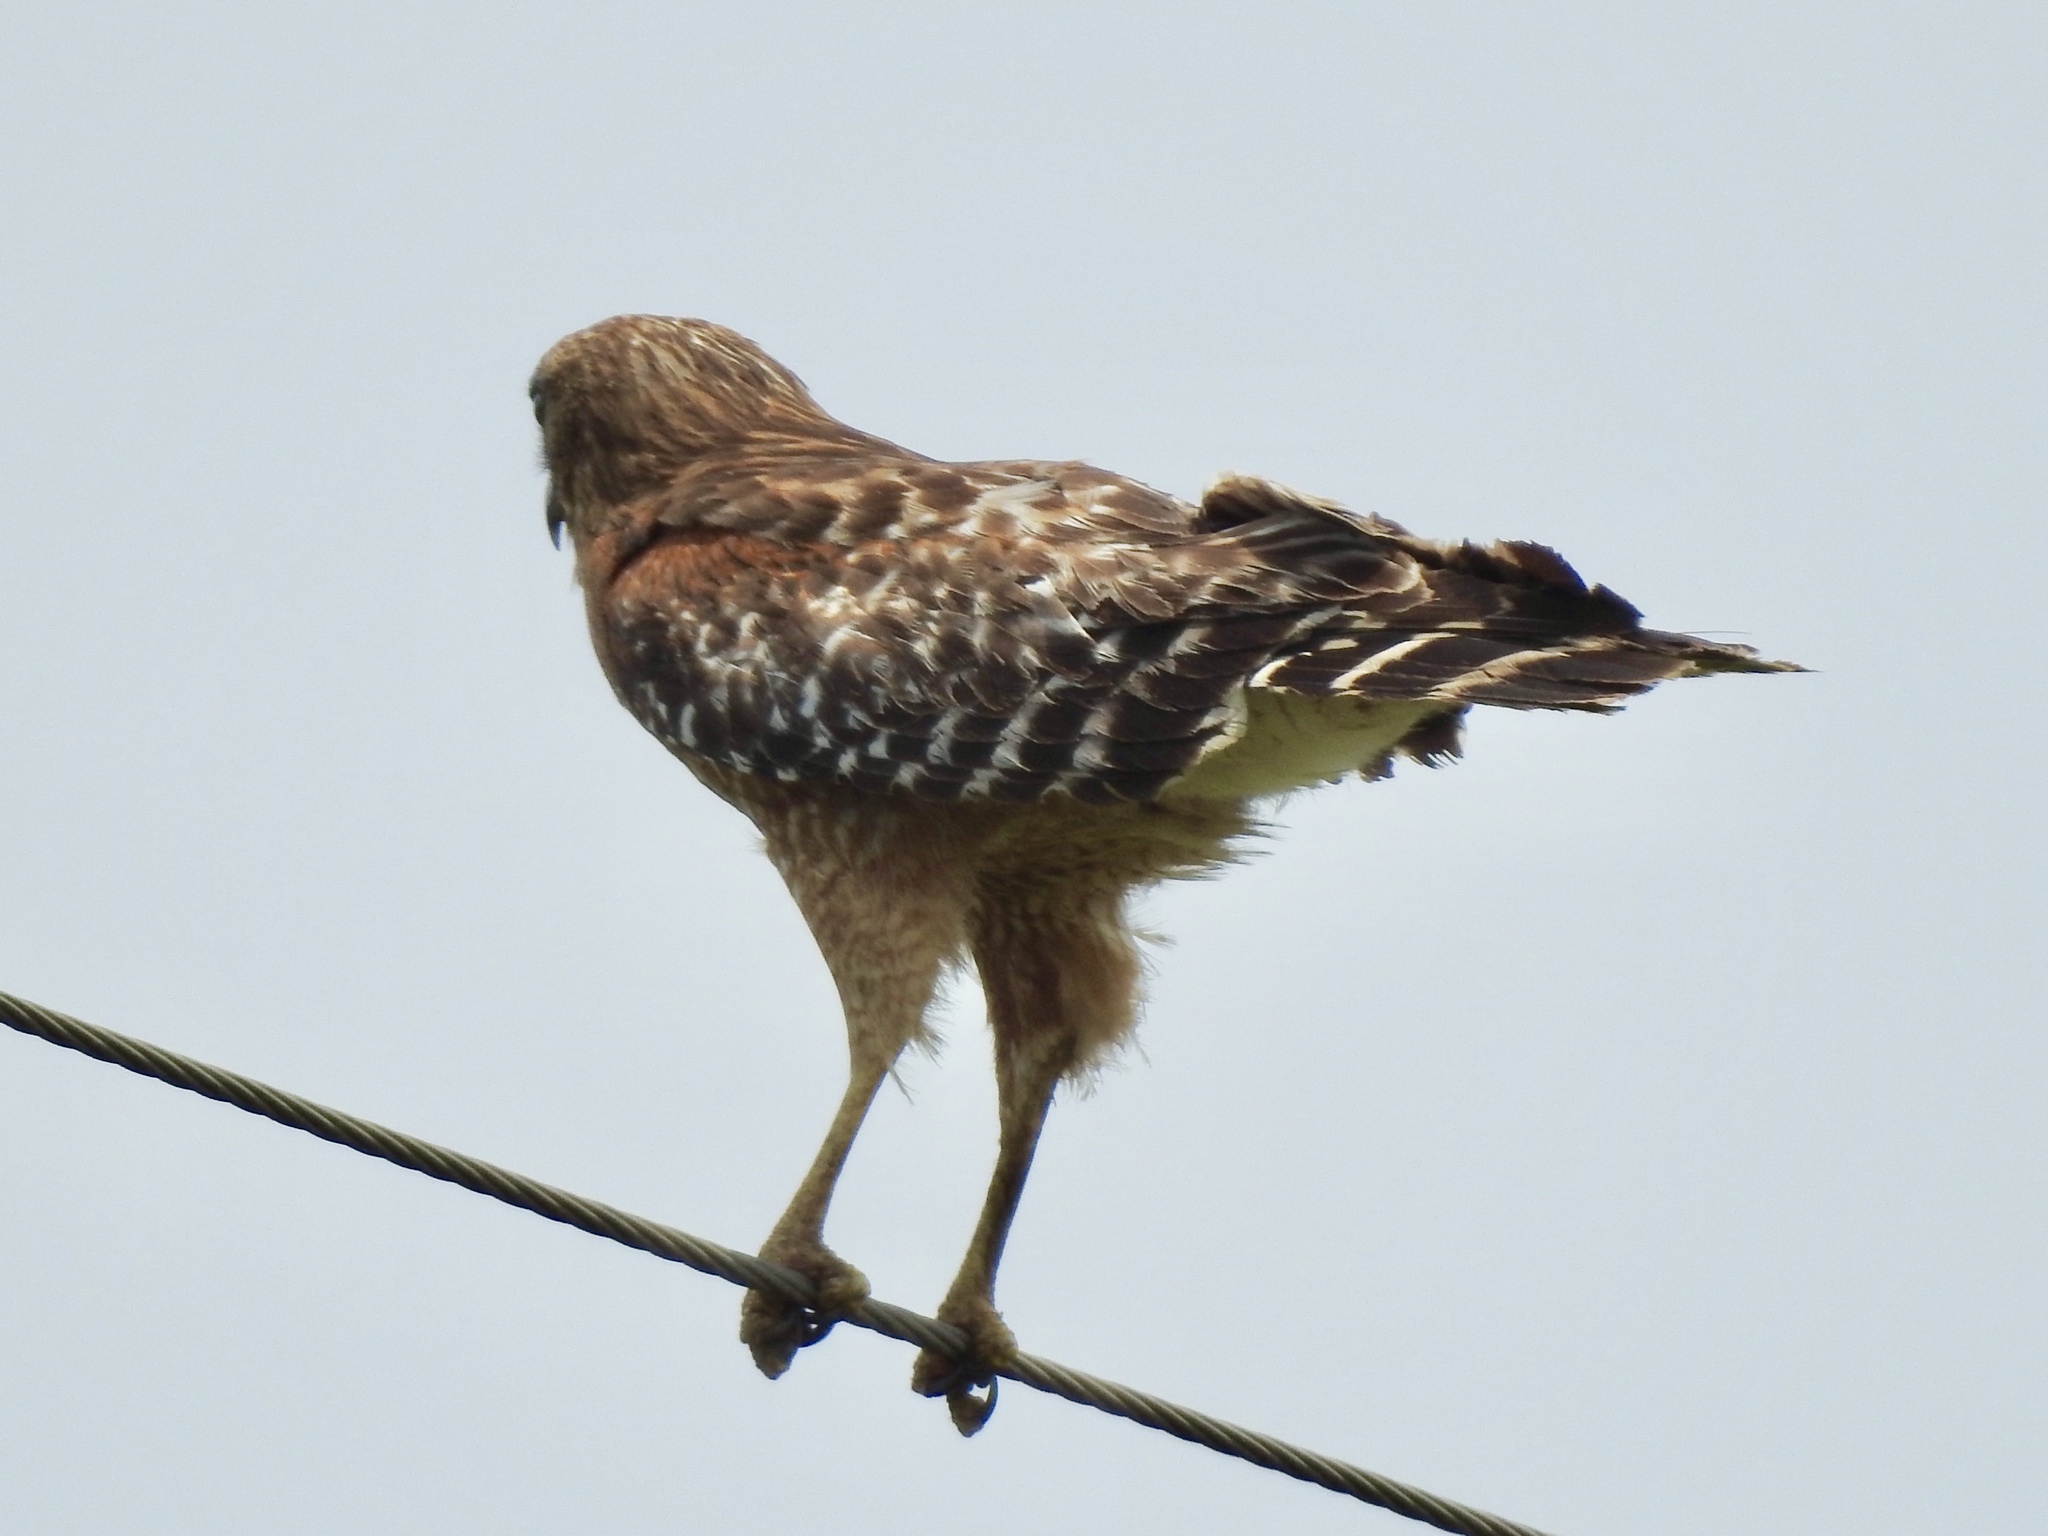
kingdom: Animalia
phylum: Chordata
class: Aves
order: Accipitriformes
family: Accipitridae
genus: Buteo
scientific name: Buteo lineatus
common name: Red-shouldered hawk
